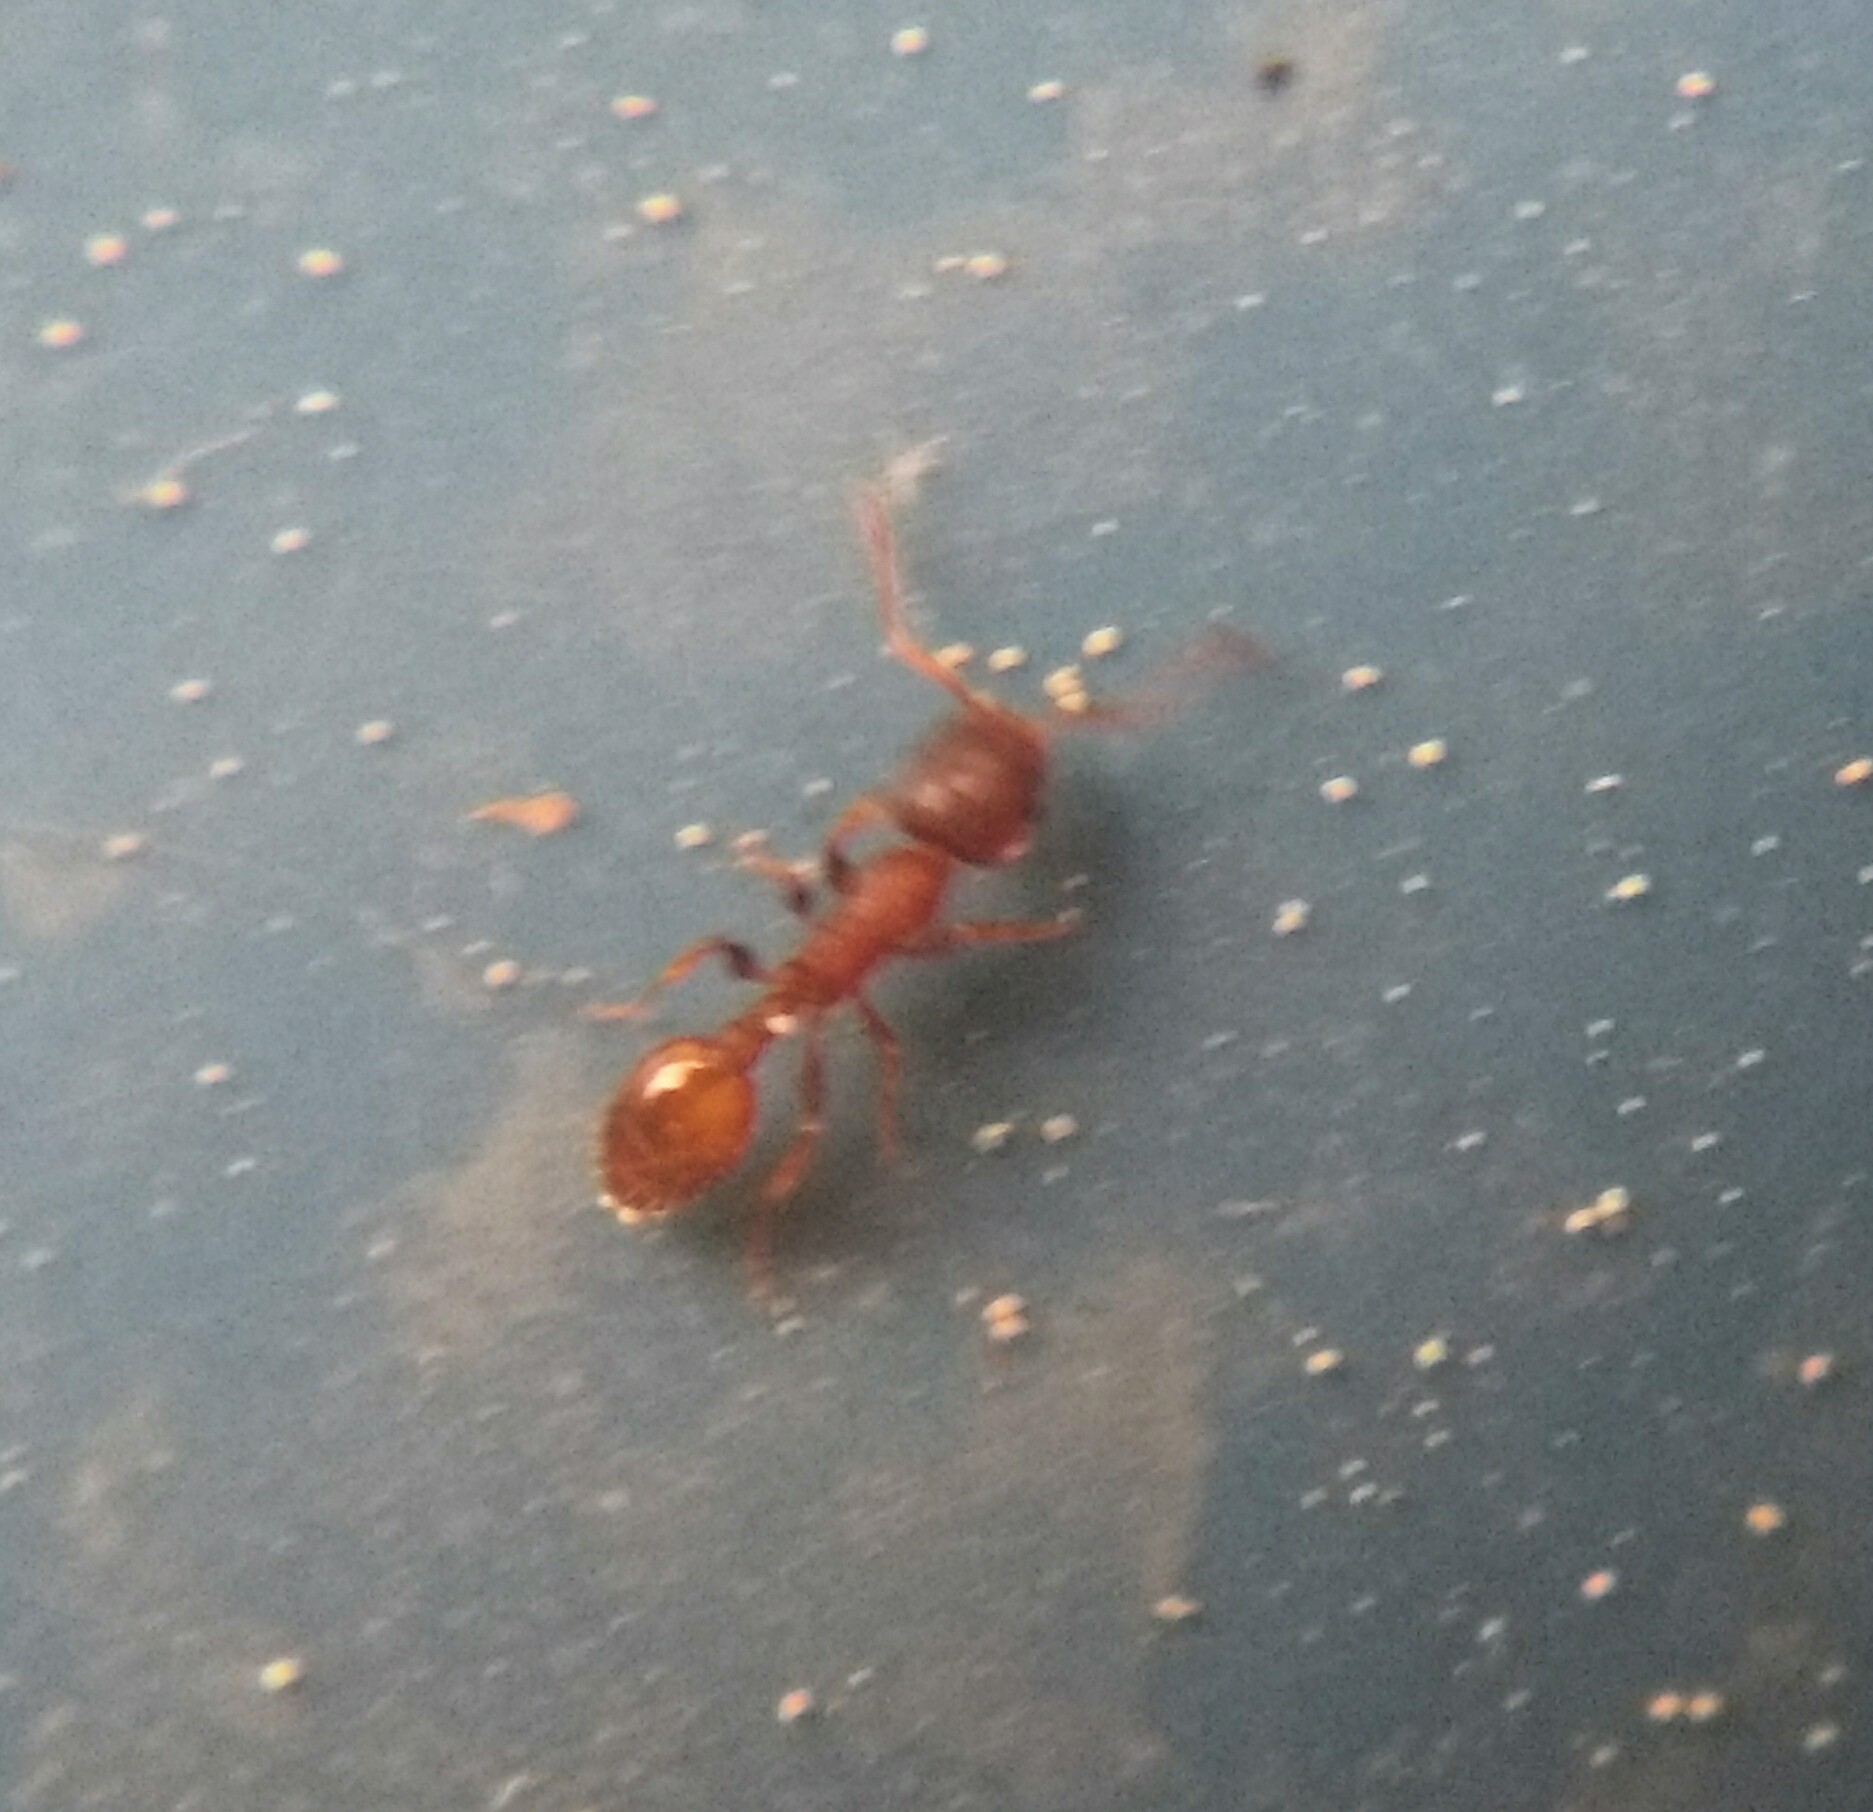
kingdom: Animalia
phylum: Arthropoda
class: Insecta
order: Hymenoptera
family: Formicidae
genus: Leptothorax
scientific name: Leptothorax affinis
